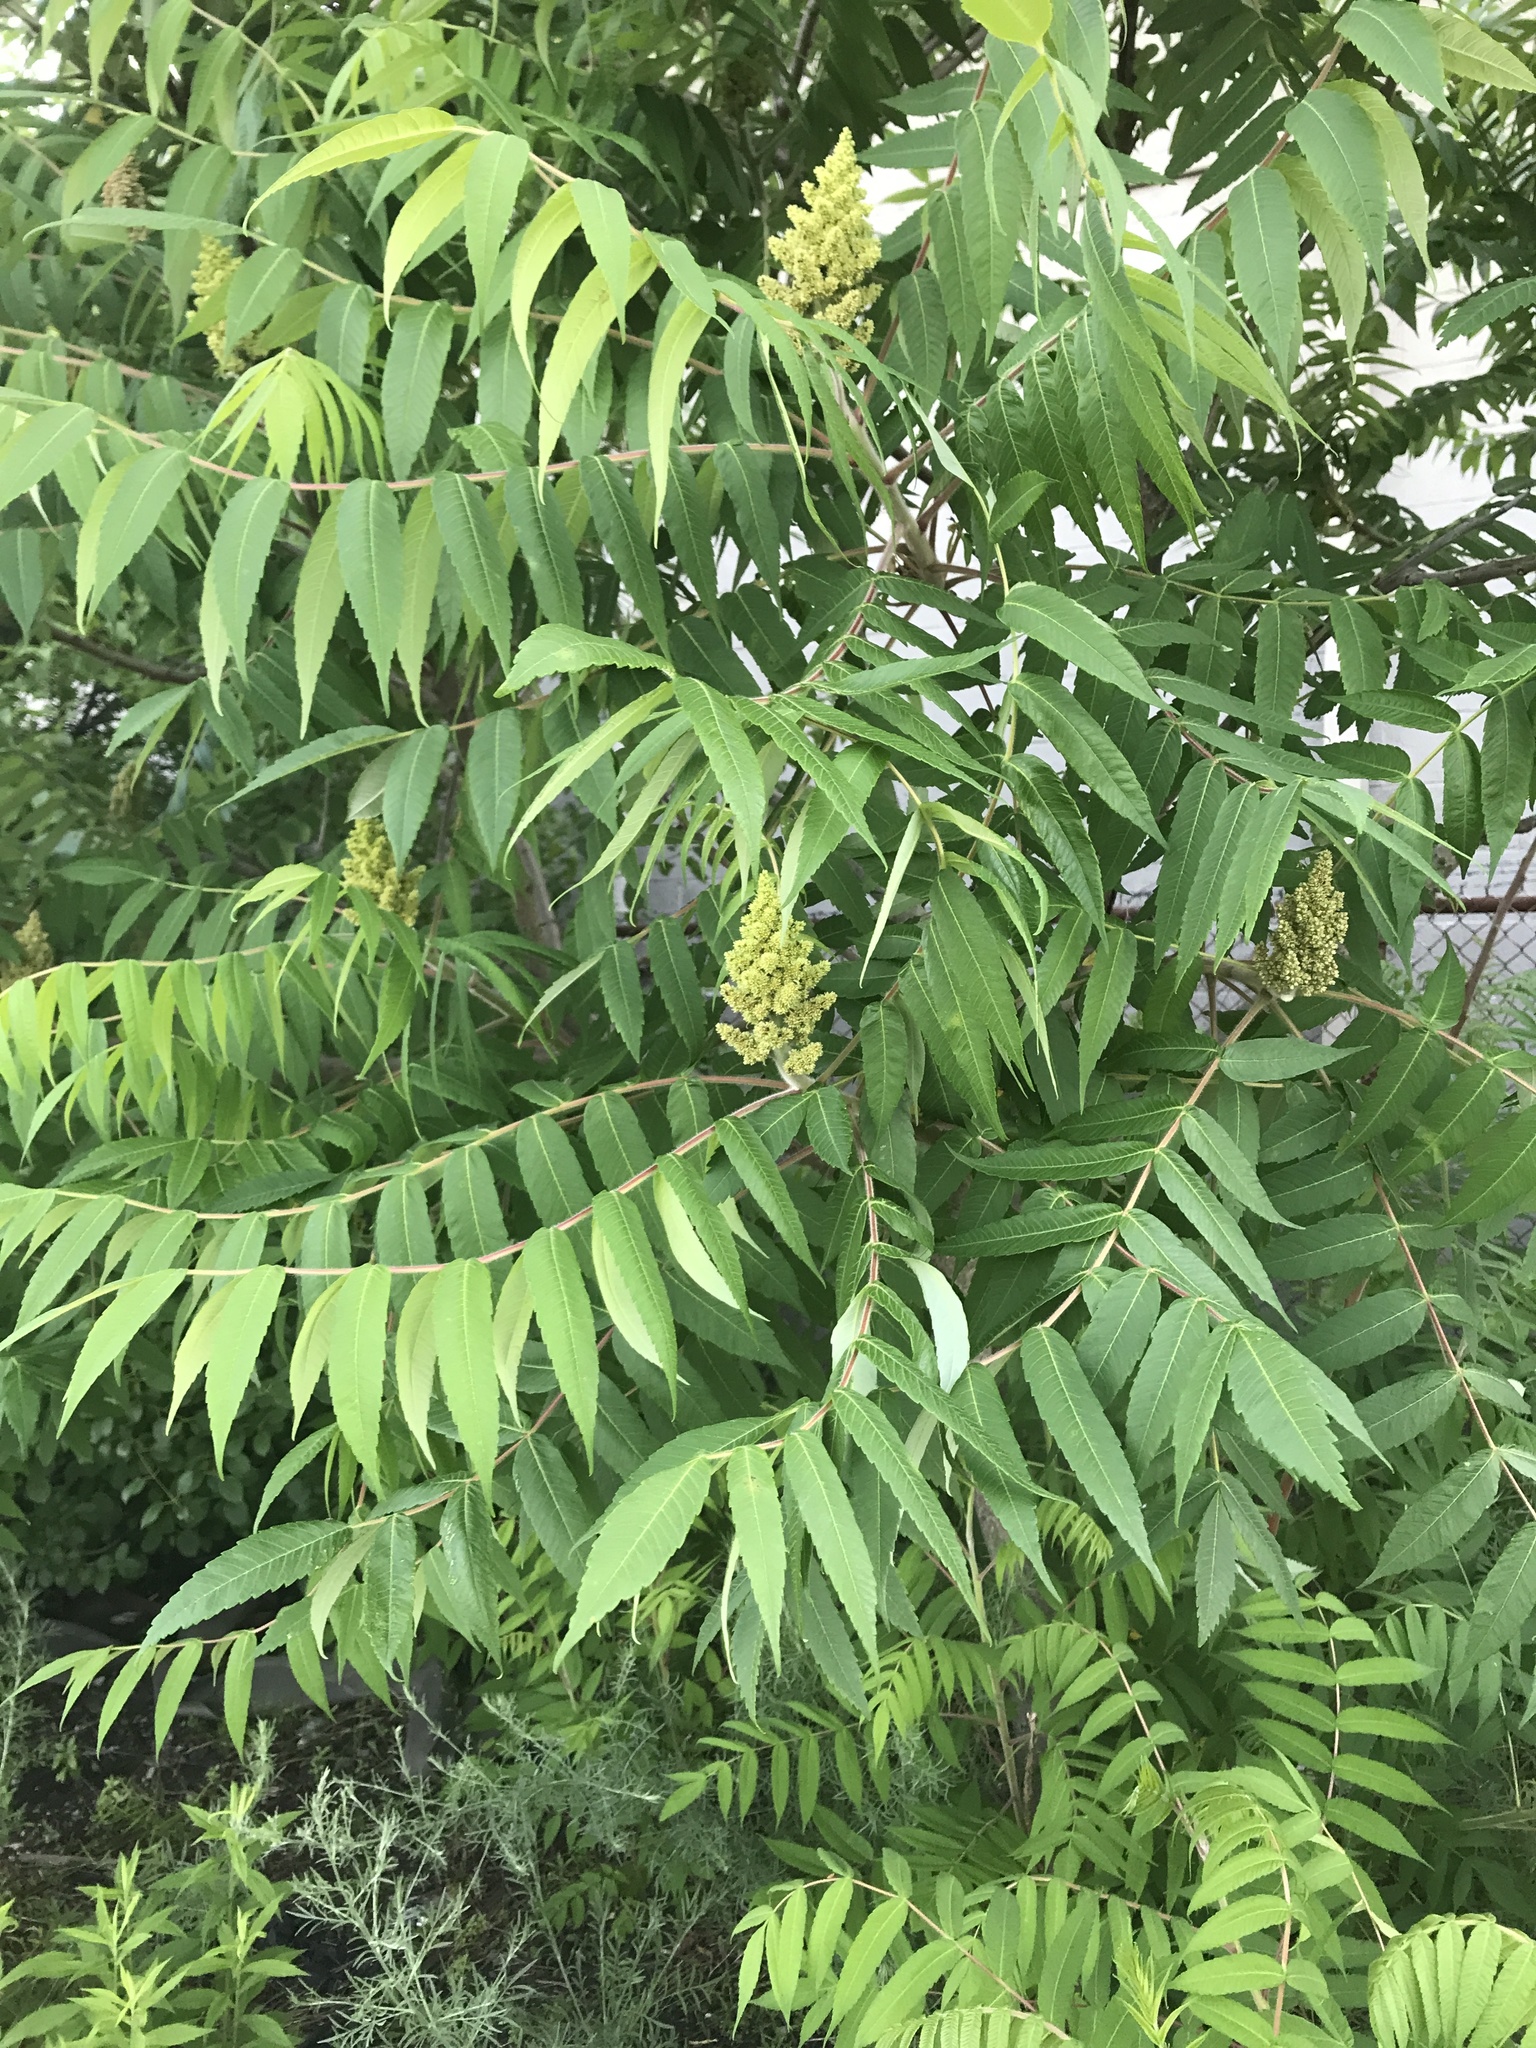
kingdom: Plantae
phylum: Tracheophyta
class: Magnoliopsida
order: Sapindales
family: Anacardiaceae
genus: Rhus
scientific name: Rhus typhina
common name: Staghorn sumac
